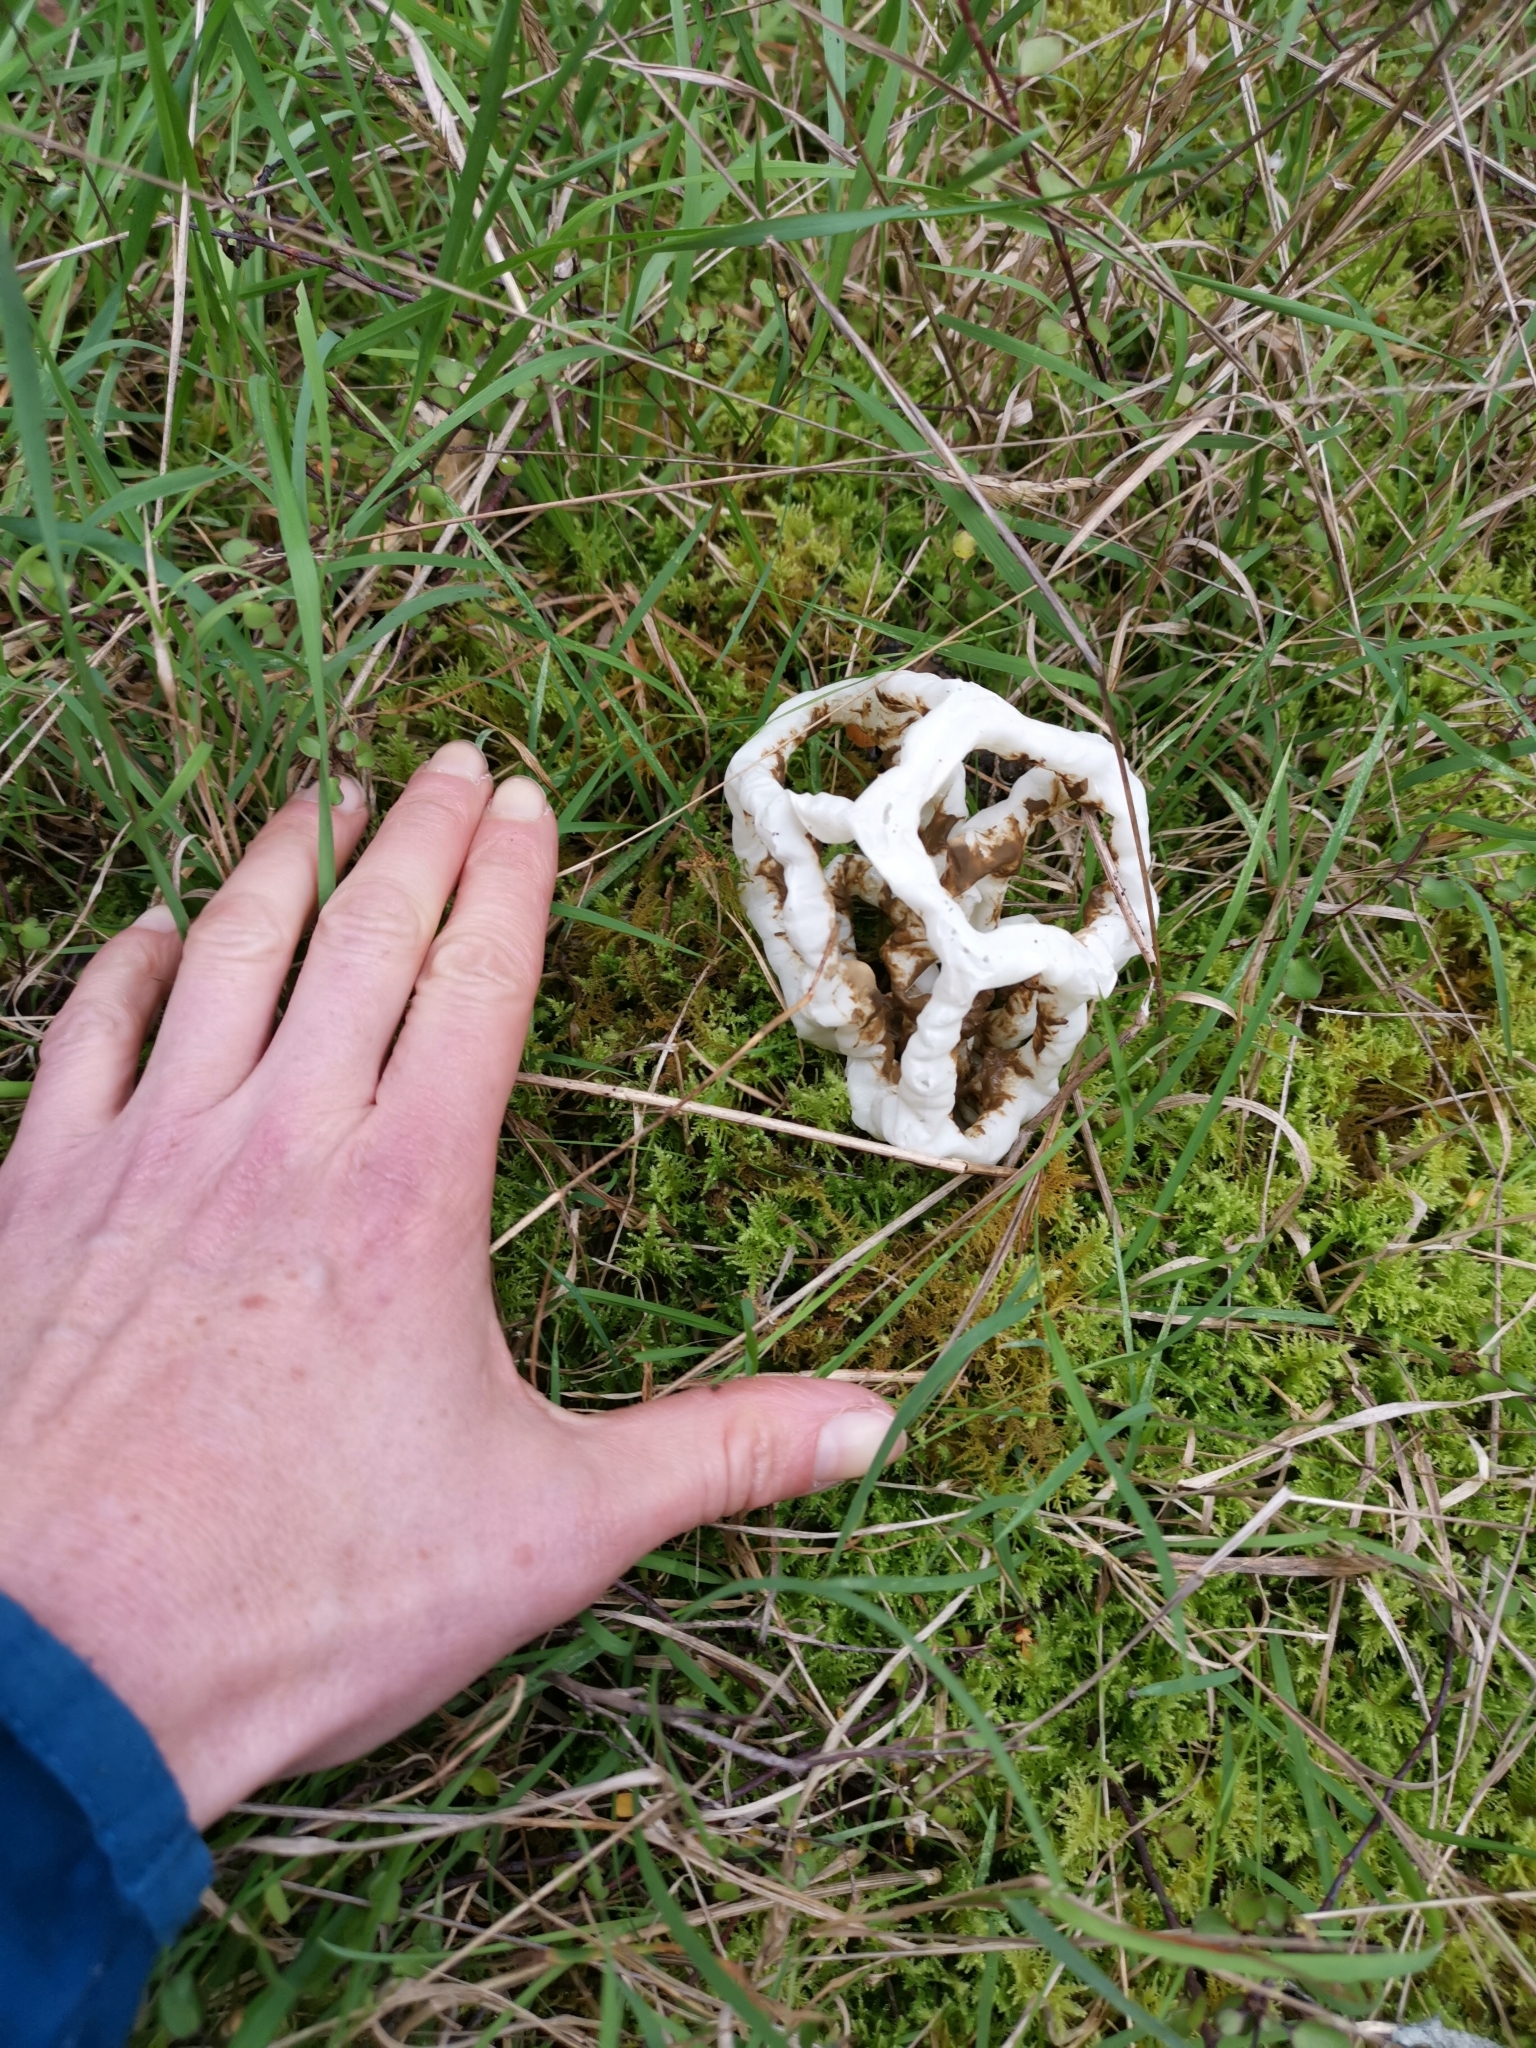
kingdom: Fungi
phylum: Basidiomycota
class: Agaricomycetes
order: Phallales
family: Phallaceae
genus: Ileodictyon
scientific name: Ileodictyon cibarium
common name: Basket fungus
